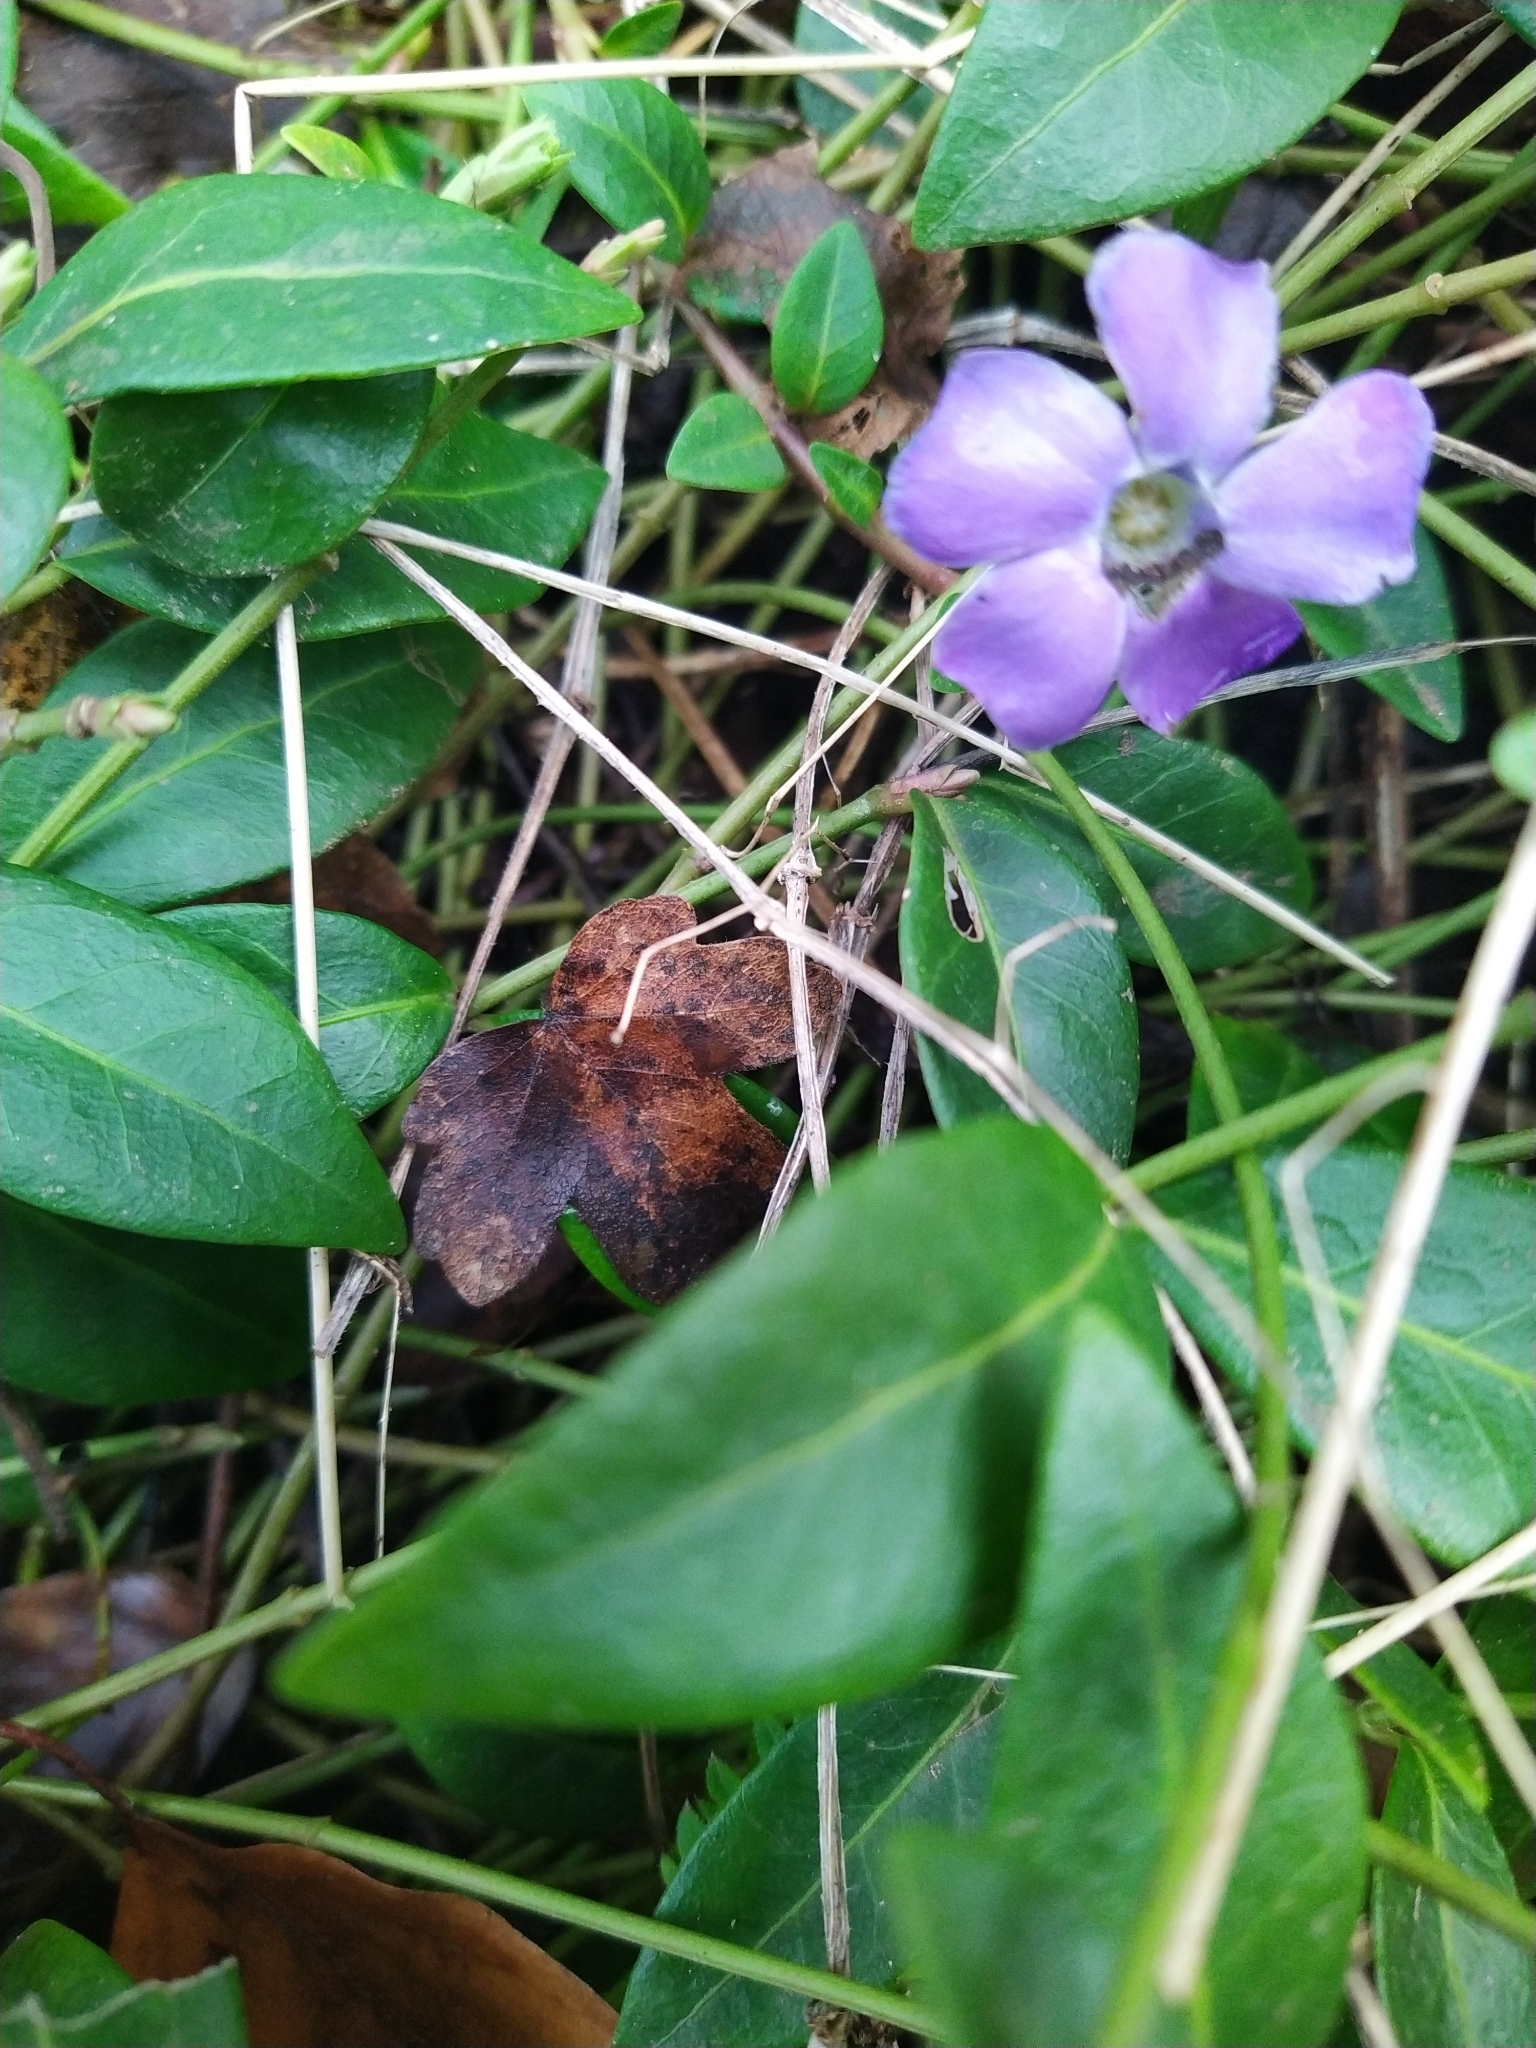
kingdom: Plantae
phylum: Tracheophyta
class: Magnoliopsida
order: Gentianales
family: Apocynaceae
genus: Vinca
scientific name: Vinca minor
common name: Lesser periwinkle
